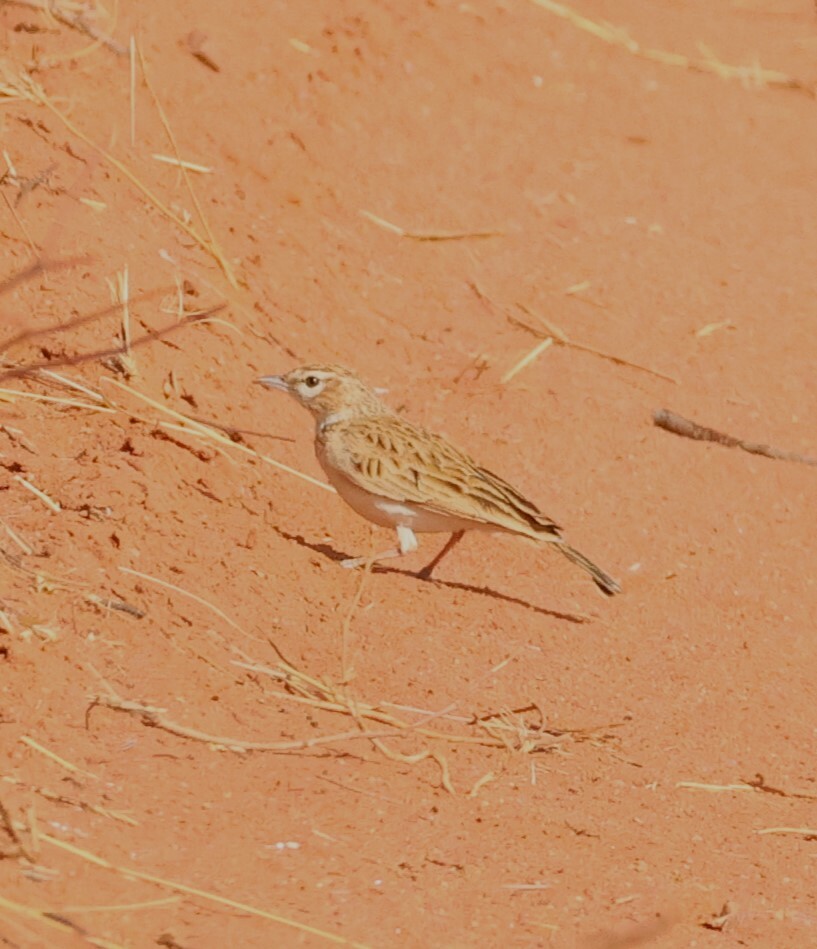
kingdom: Animalia
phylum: Chordata
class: Aves
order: Passeriformes
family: Alaudidae
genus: Calendulauda
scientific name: Calendulauda africanoides
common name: Fawn-colored lark
